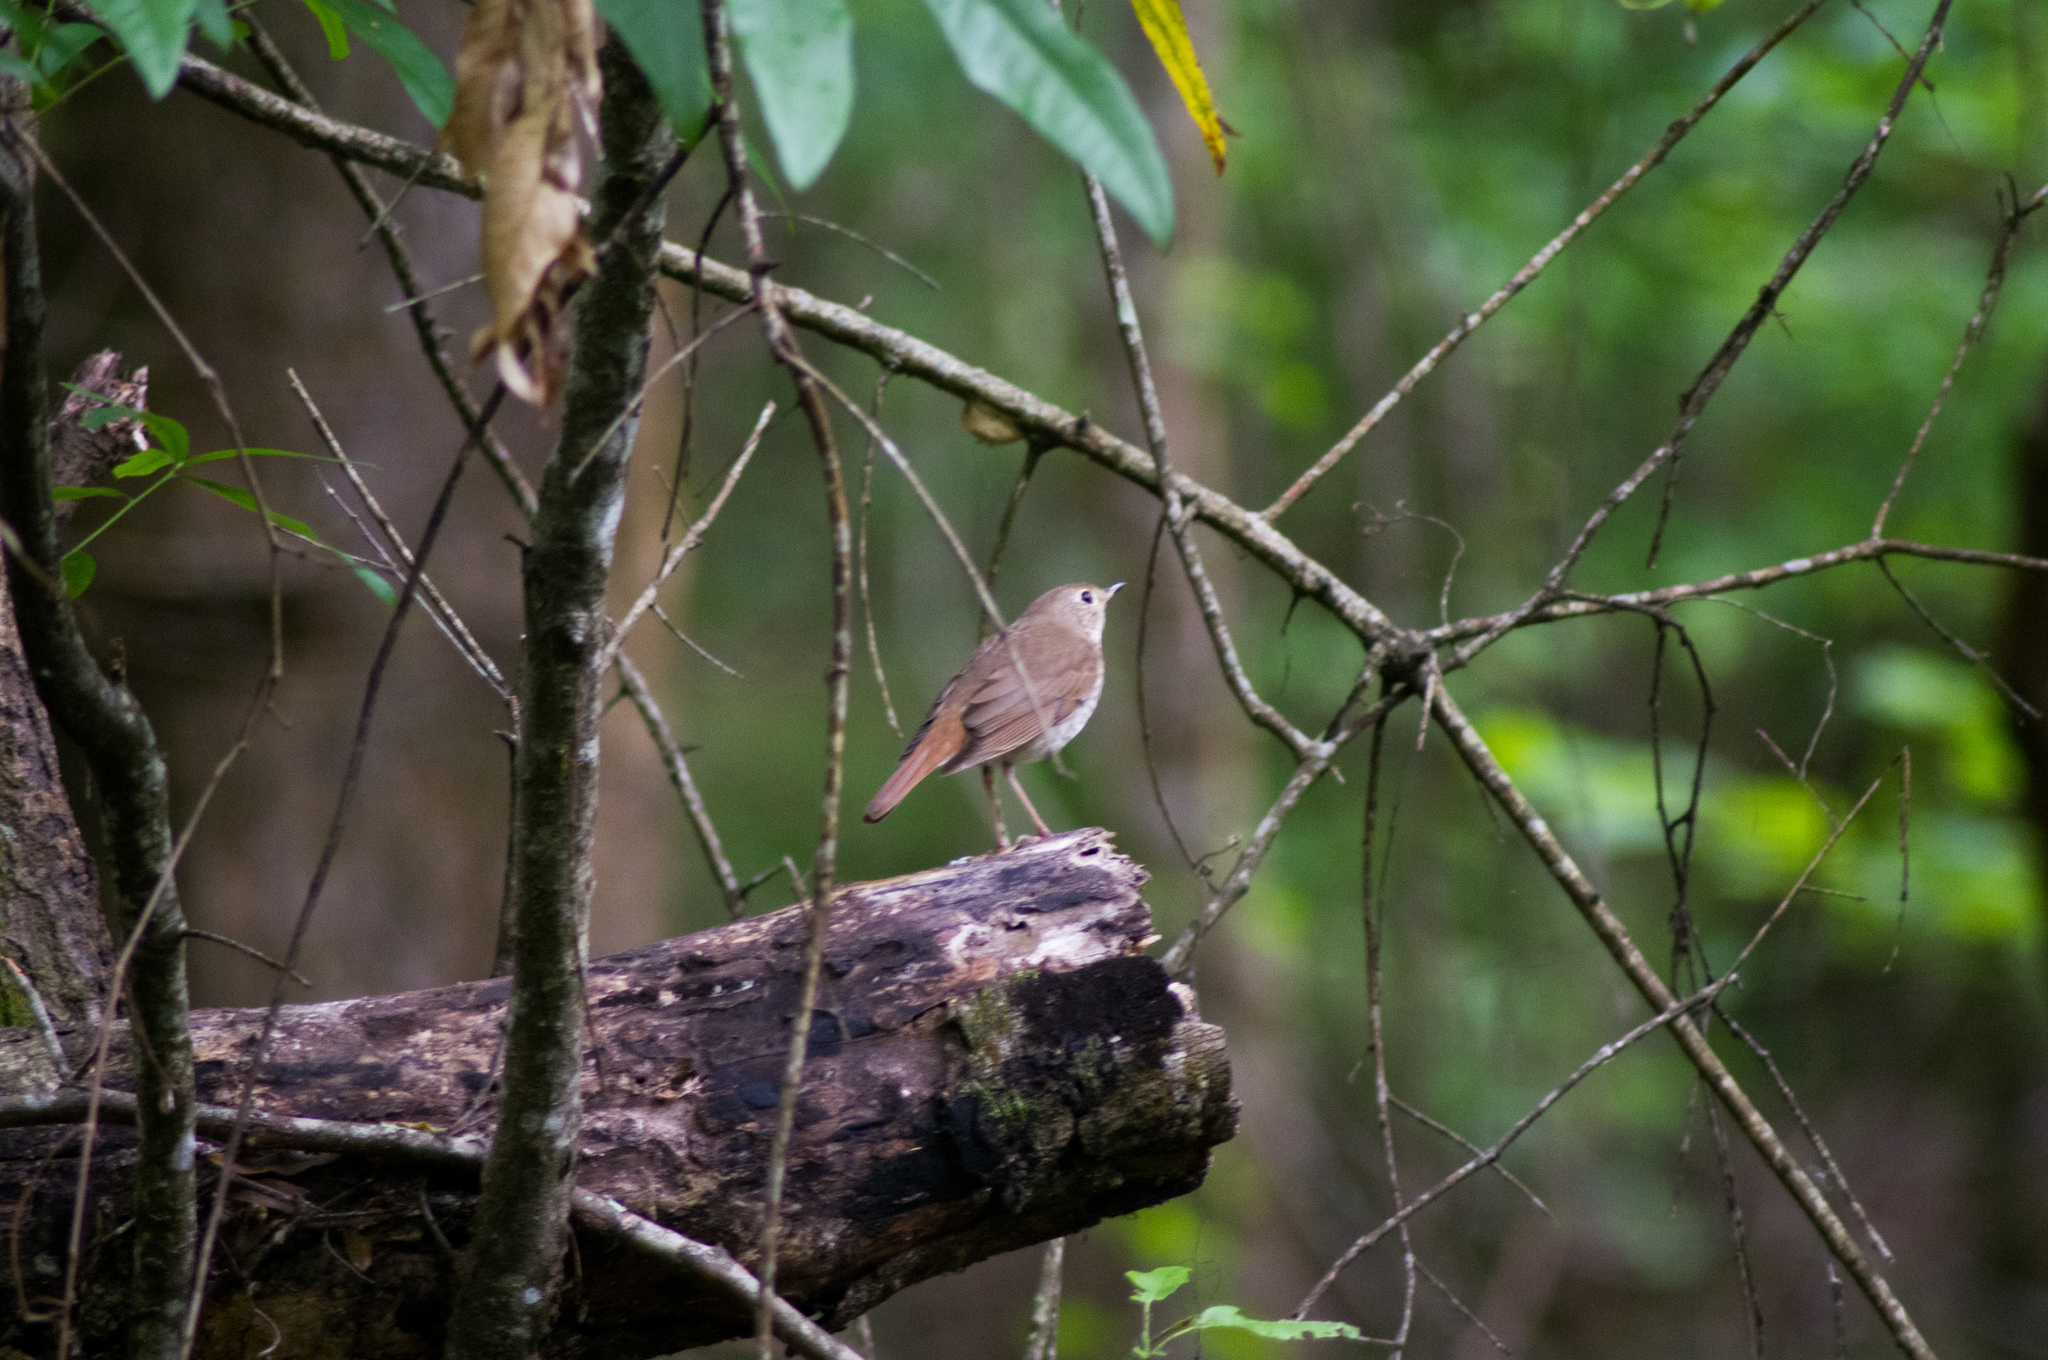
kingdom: Animalia
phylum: Chordata
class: Aves
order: Passeriformes
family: Turdidae
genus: Catharus
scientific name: Catharus guttatus
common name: Hermit thrush
